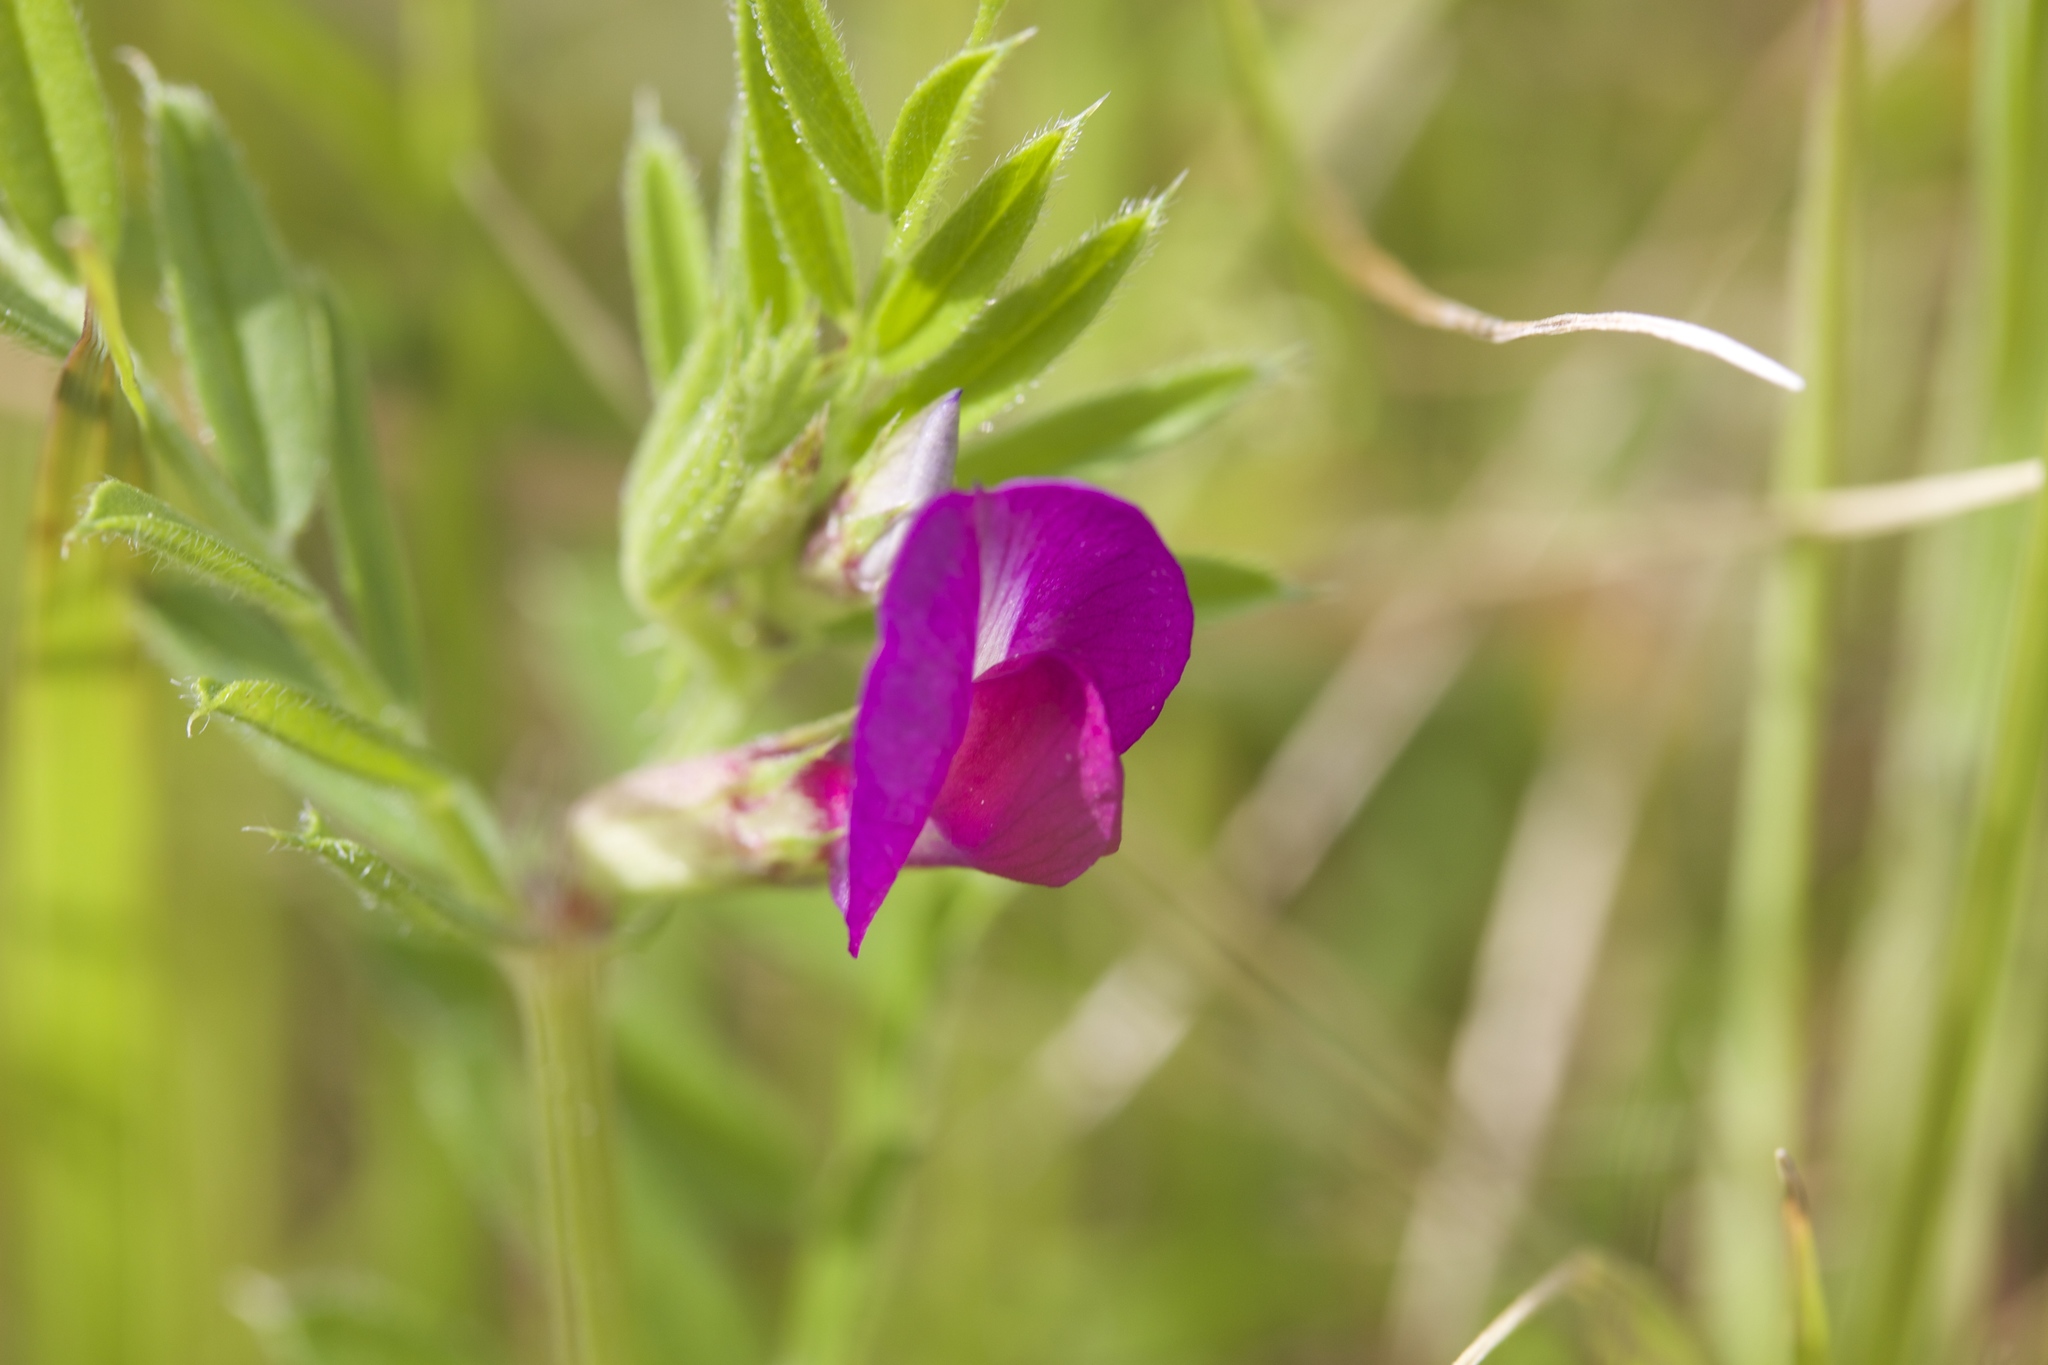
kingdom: Plantae
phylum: Tracheophyta
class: Magnoliopsida
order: Fabales
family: Fabaceae
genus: Vicia
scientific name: Vicia sativa
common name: Garden vetch
